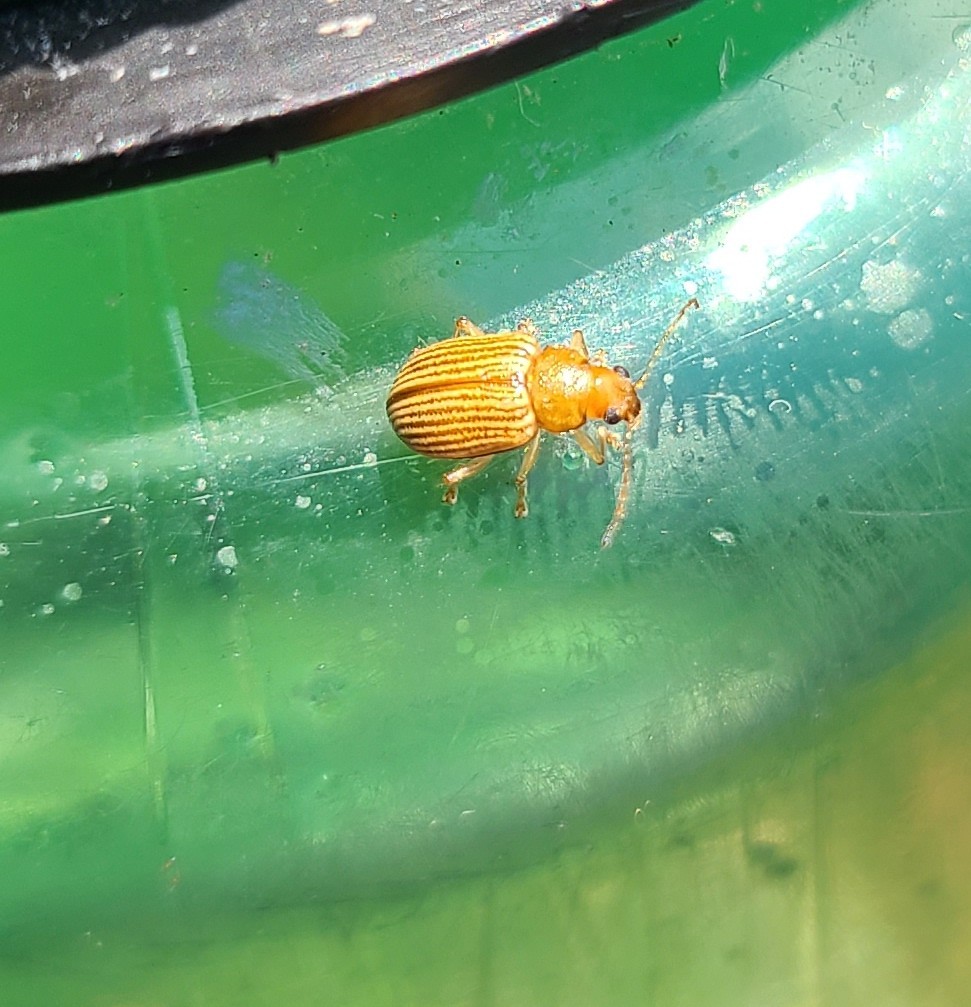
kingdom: Animalia
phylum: Arthropoda
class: Insecta
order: Coleoptera
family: Chrysomelidae
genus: Colaspis
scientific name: Colaspis brunnea
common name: Grape colaspis
